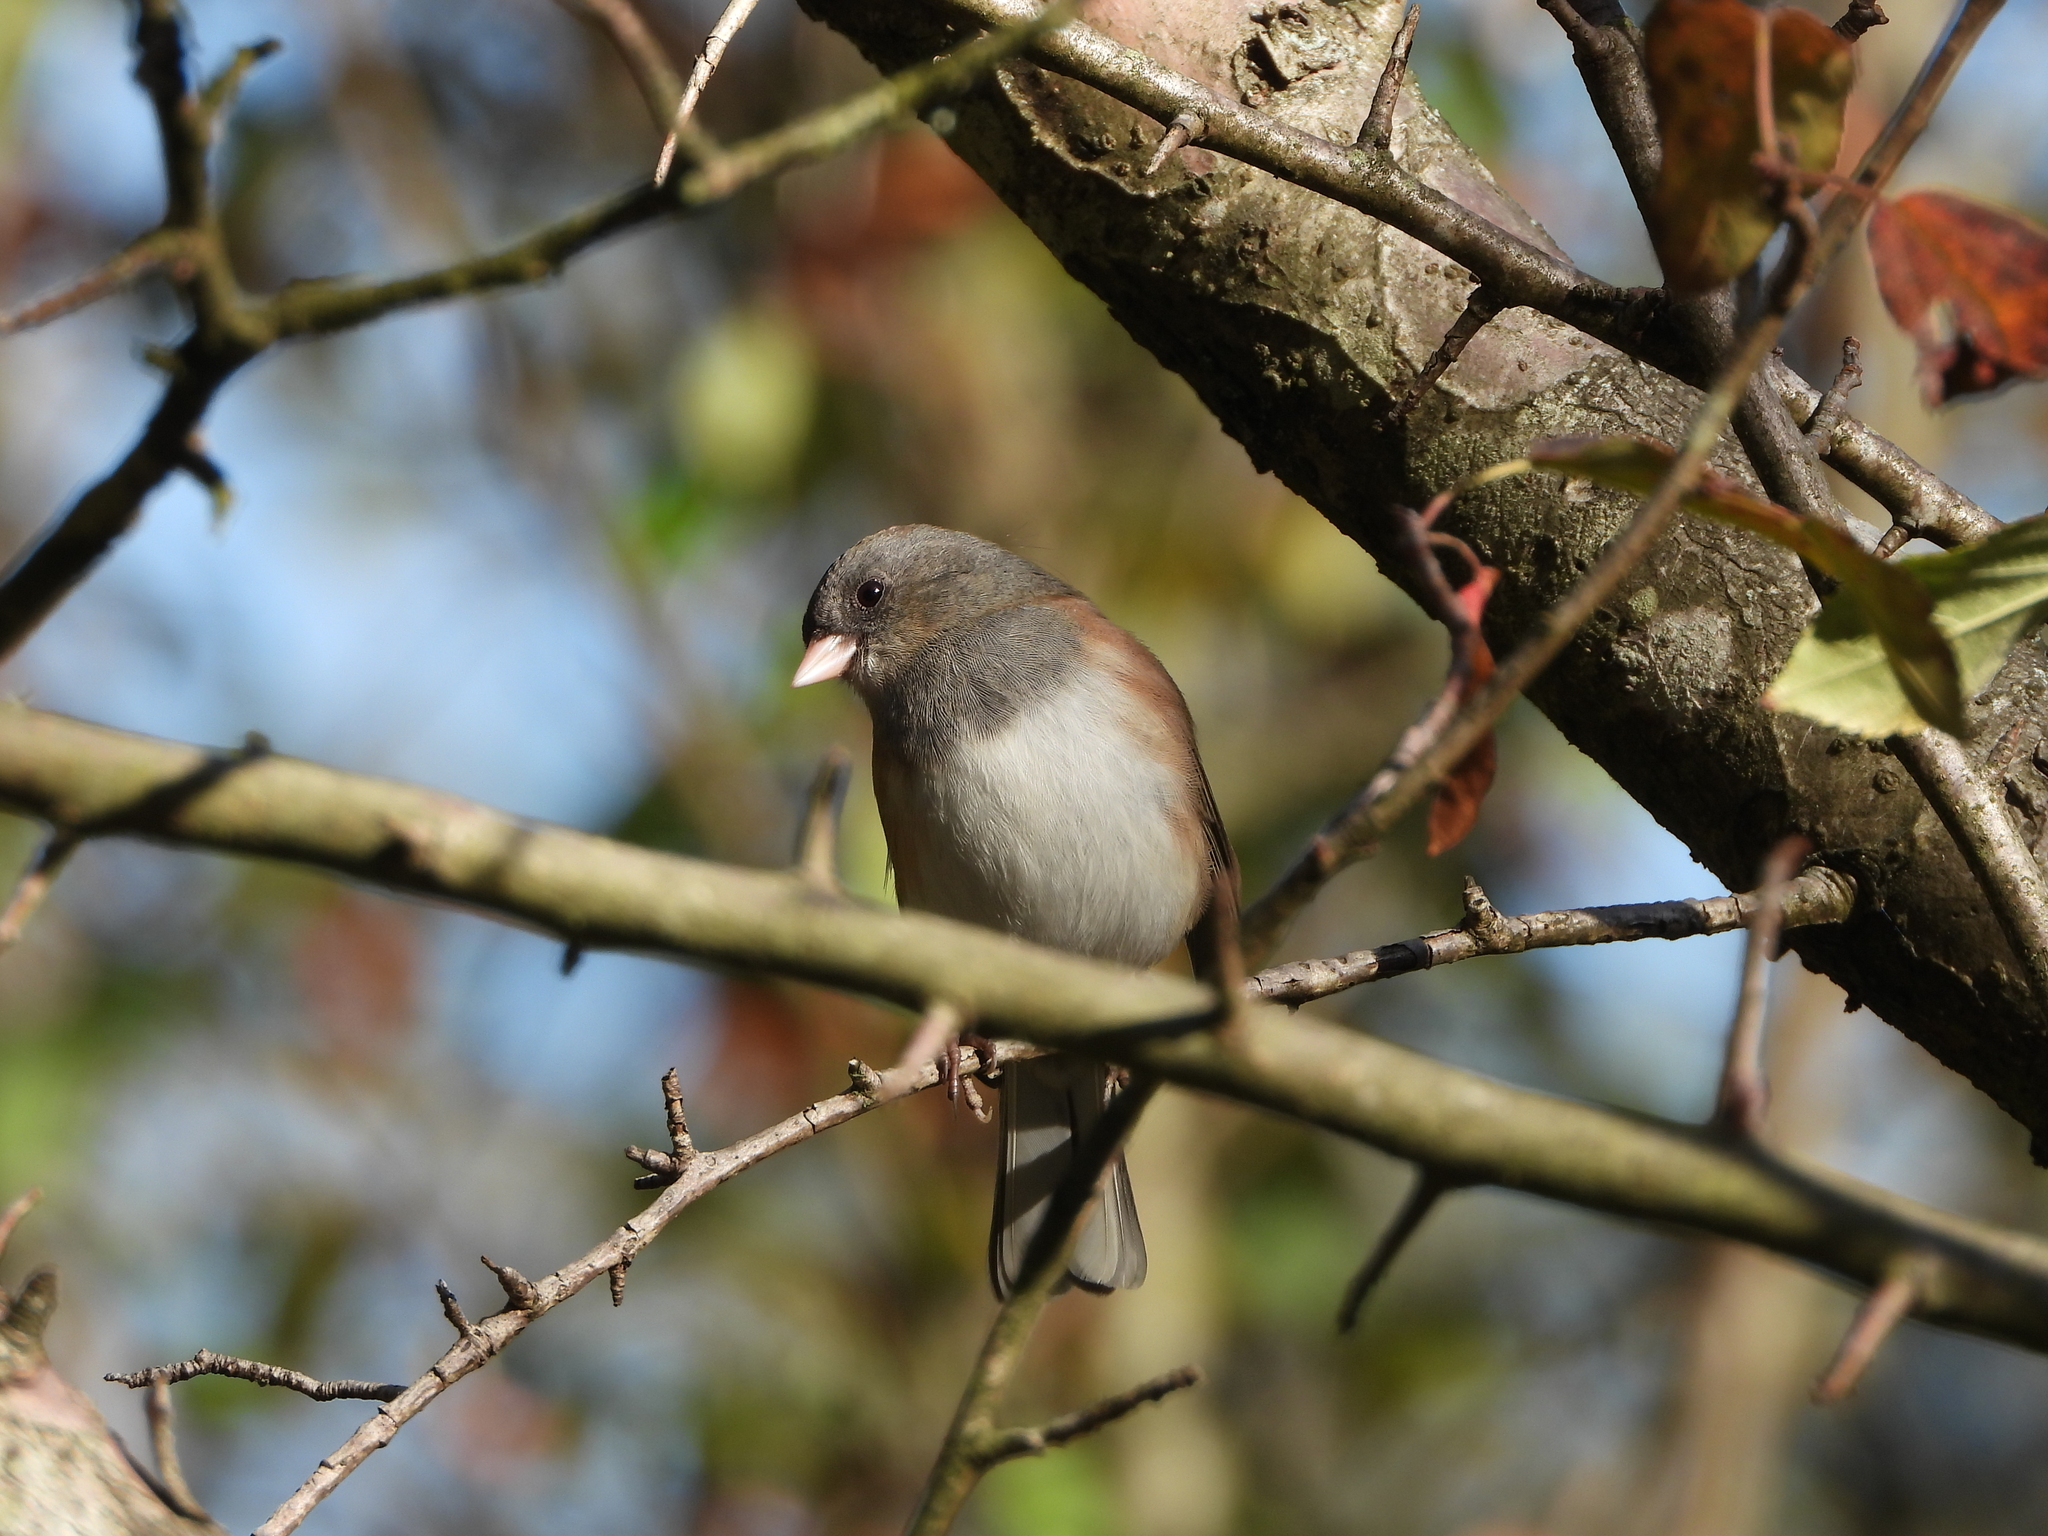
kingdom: Animalia
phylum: Chordata
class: Aves
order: Passeriformes
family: Passerellidae
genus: Junco
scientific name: Junco hyemalis
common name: Dark-eyed junco
